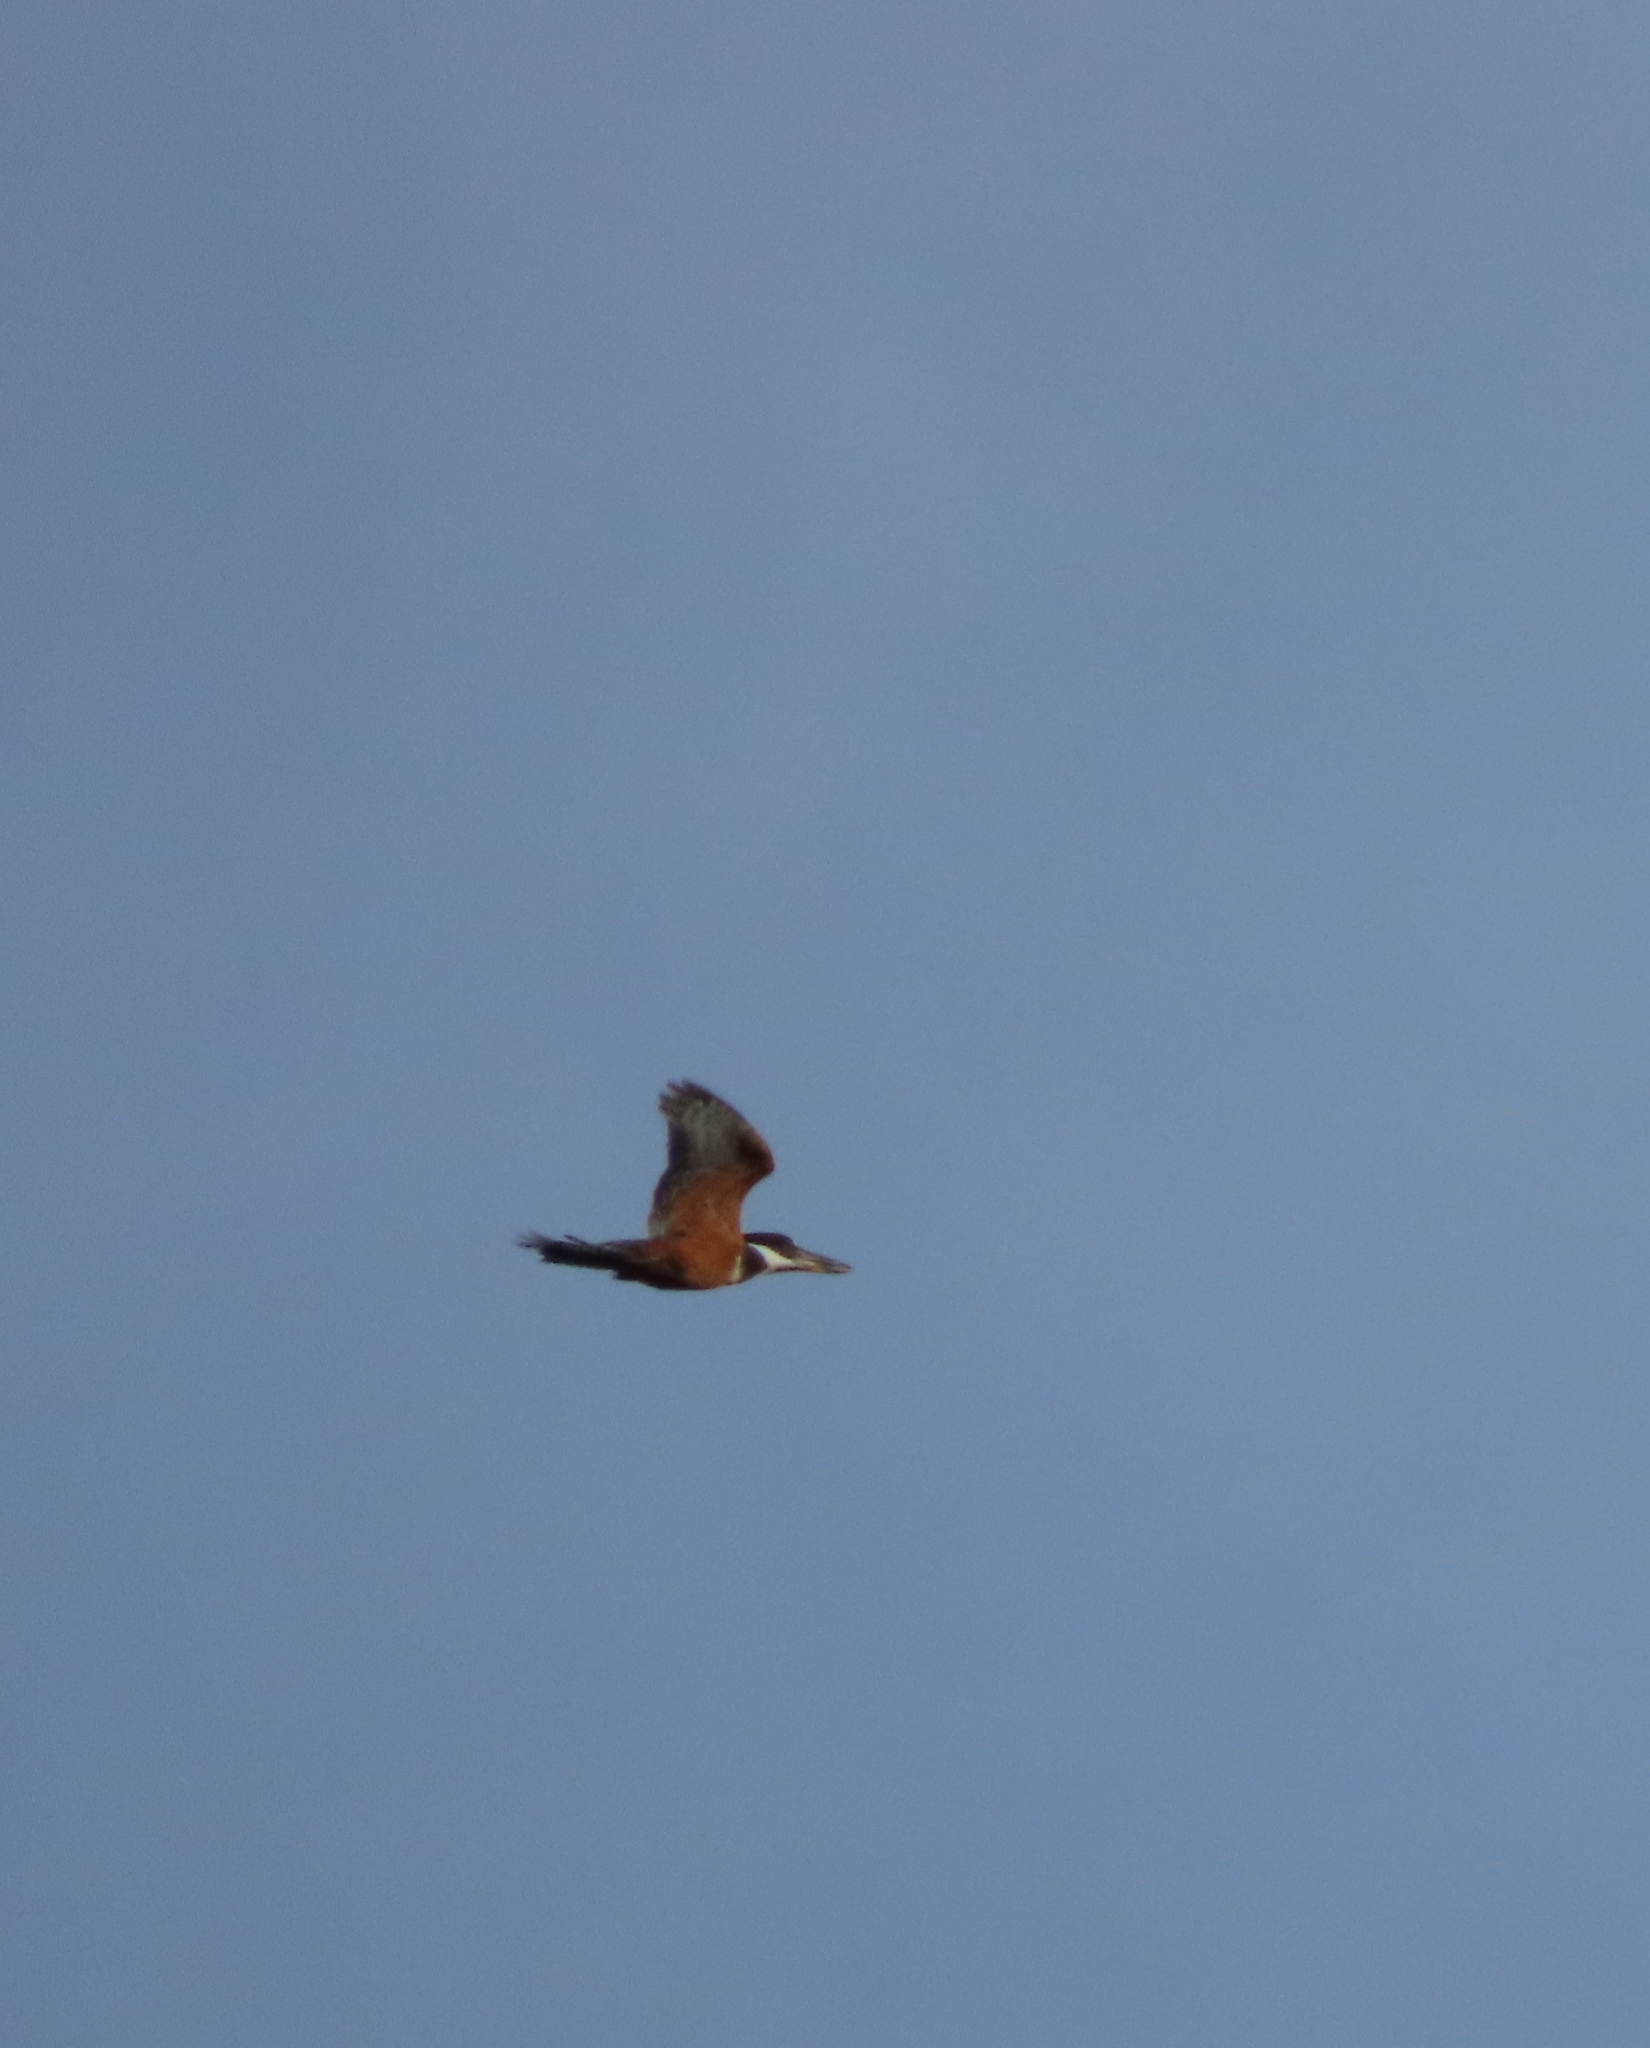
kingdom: Animalia
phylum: Chordata
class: Aves
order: Coraciiformes
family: Alcedinidae
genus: Megaceryle
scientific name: Megaceryle torquata
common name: Ringed kingfisher
